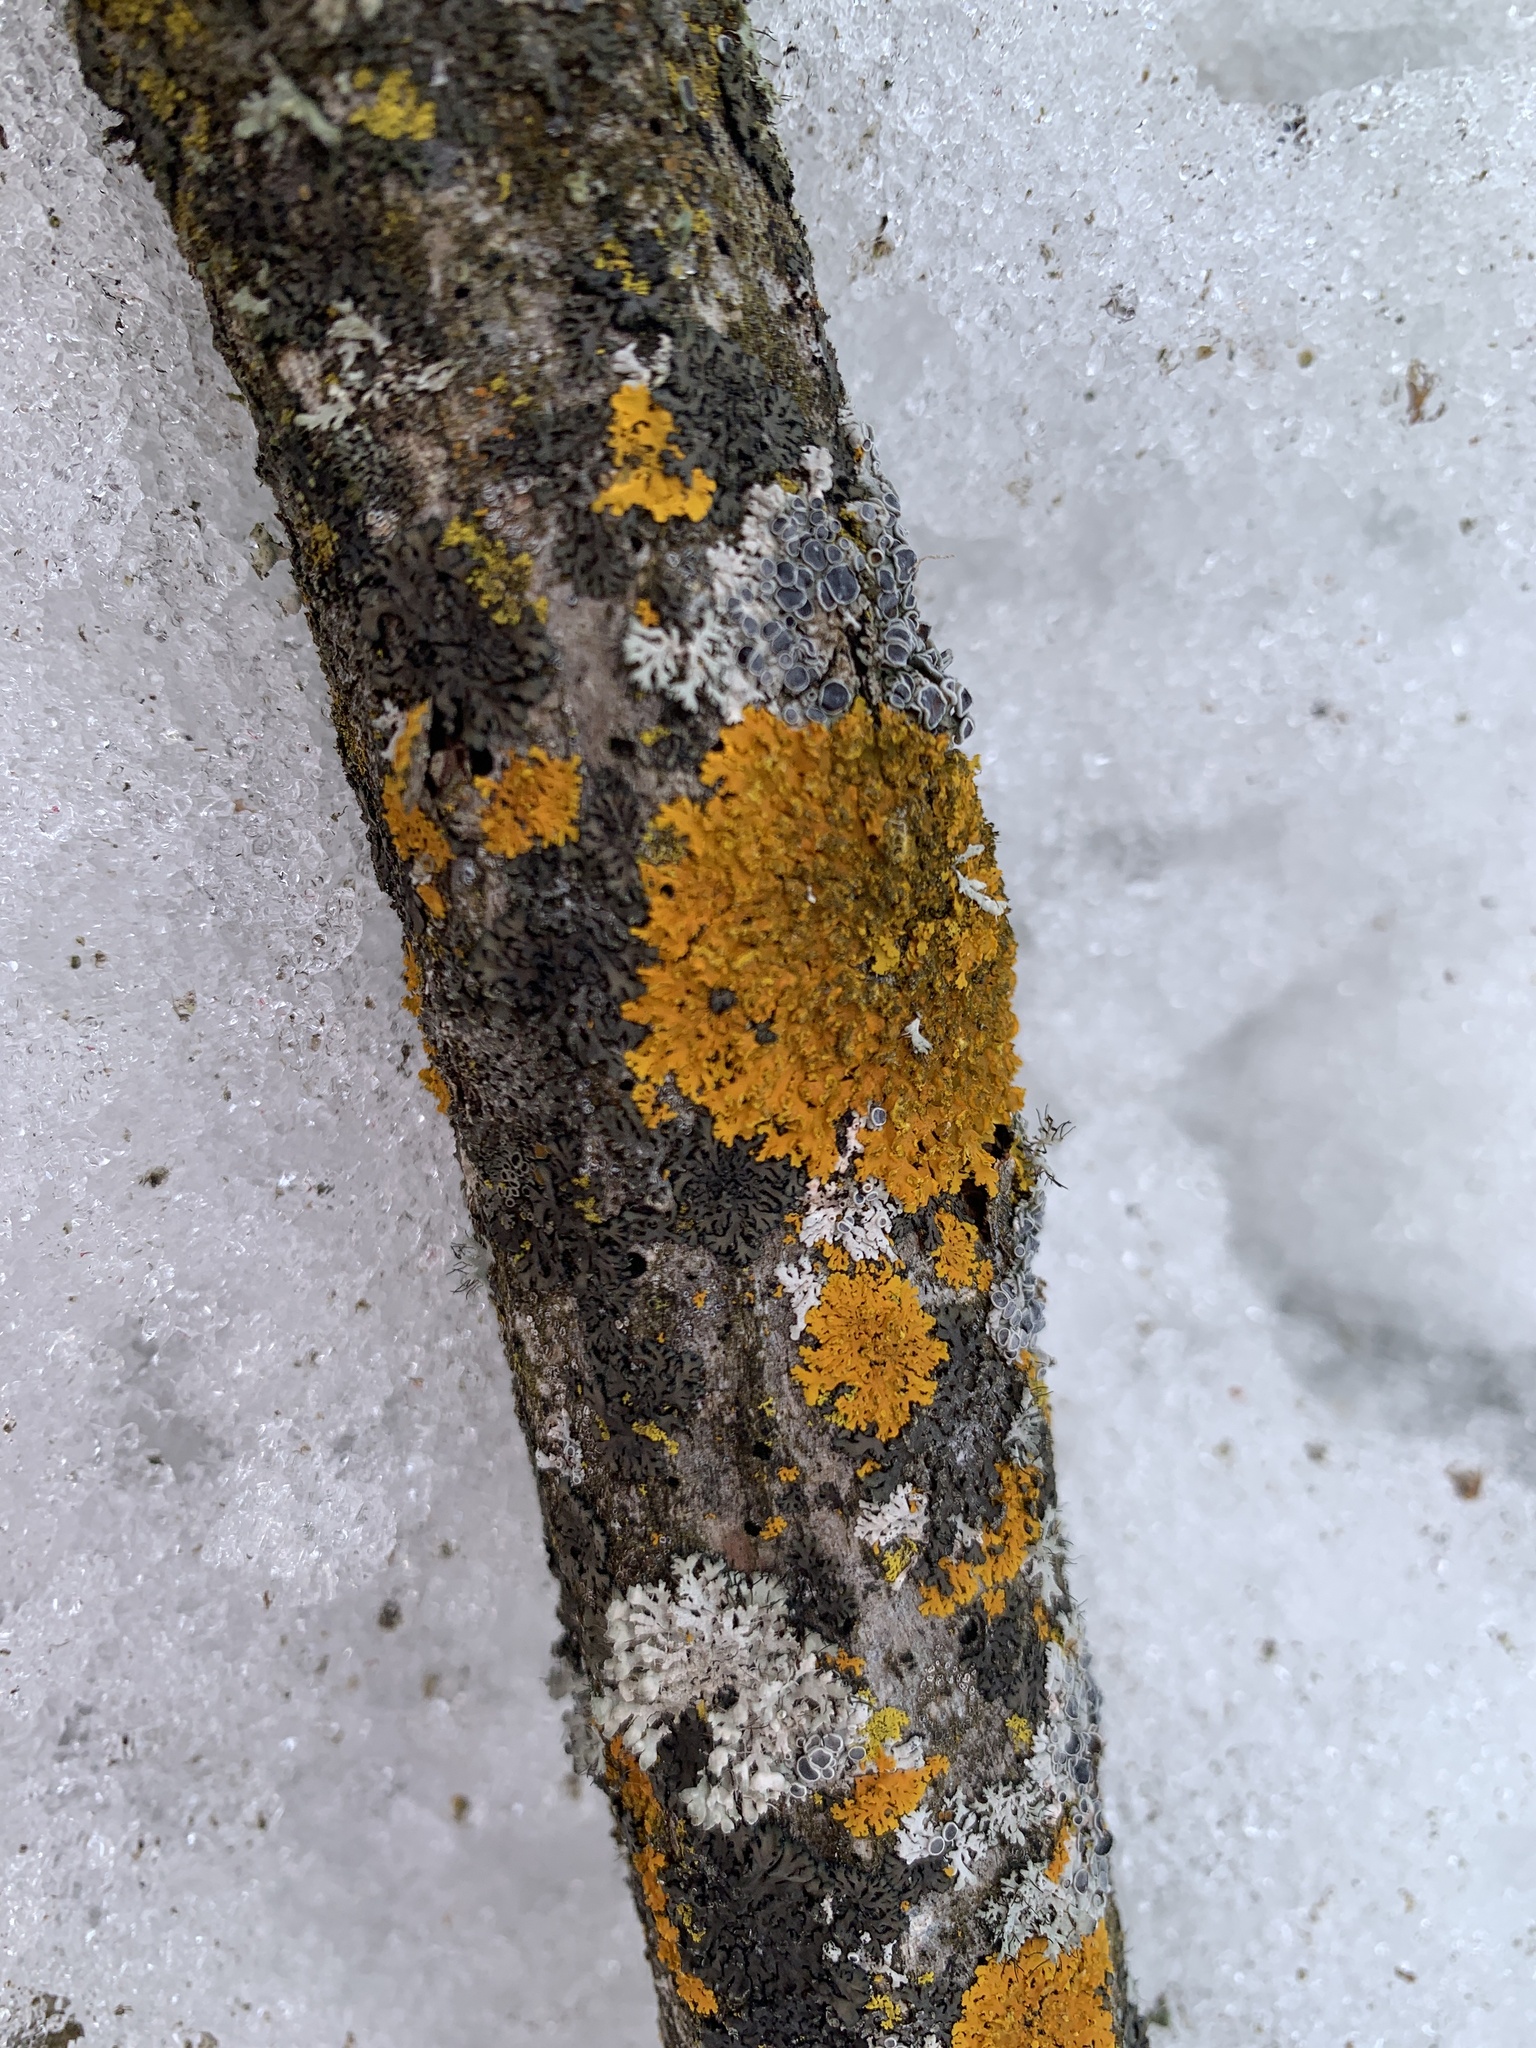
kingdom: Fungi
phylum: Ascomycota
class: Lecanoromycetes
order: Teloschistales
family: Teloschistaceae
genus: Xanthoria
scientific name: Xanthoria parietina
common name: Common orange lichen
